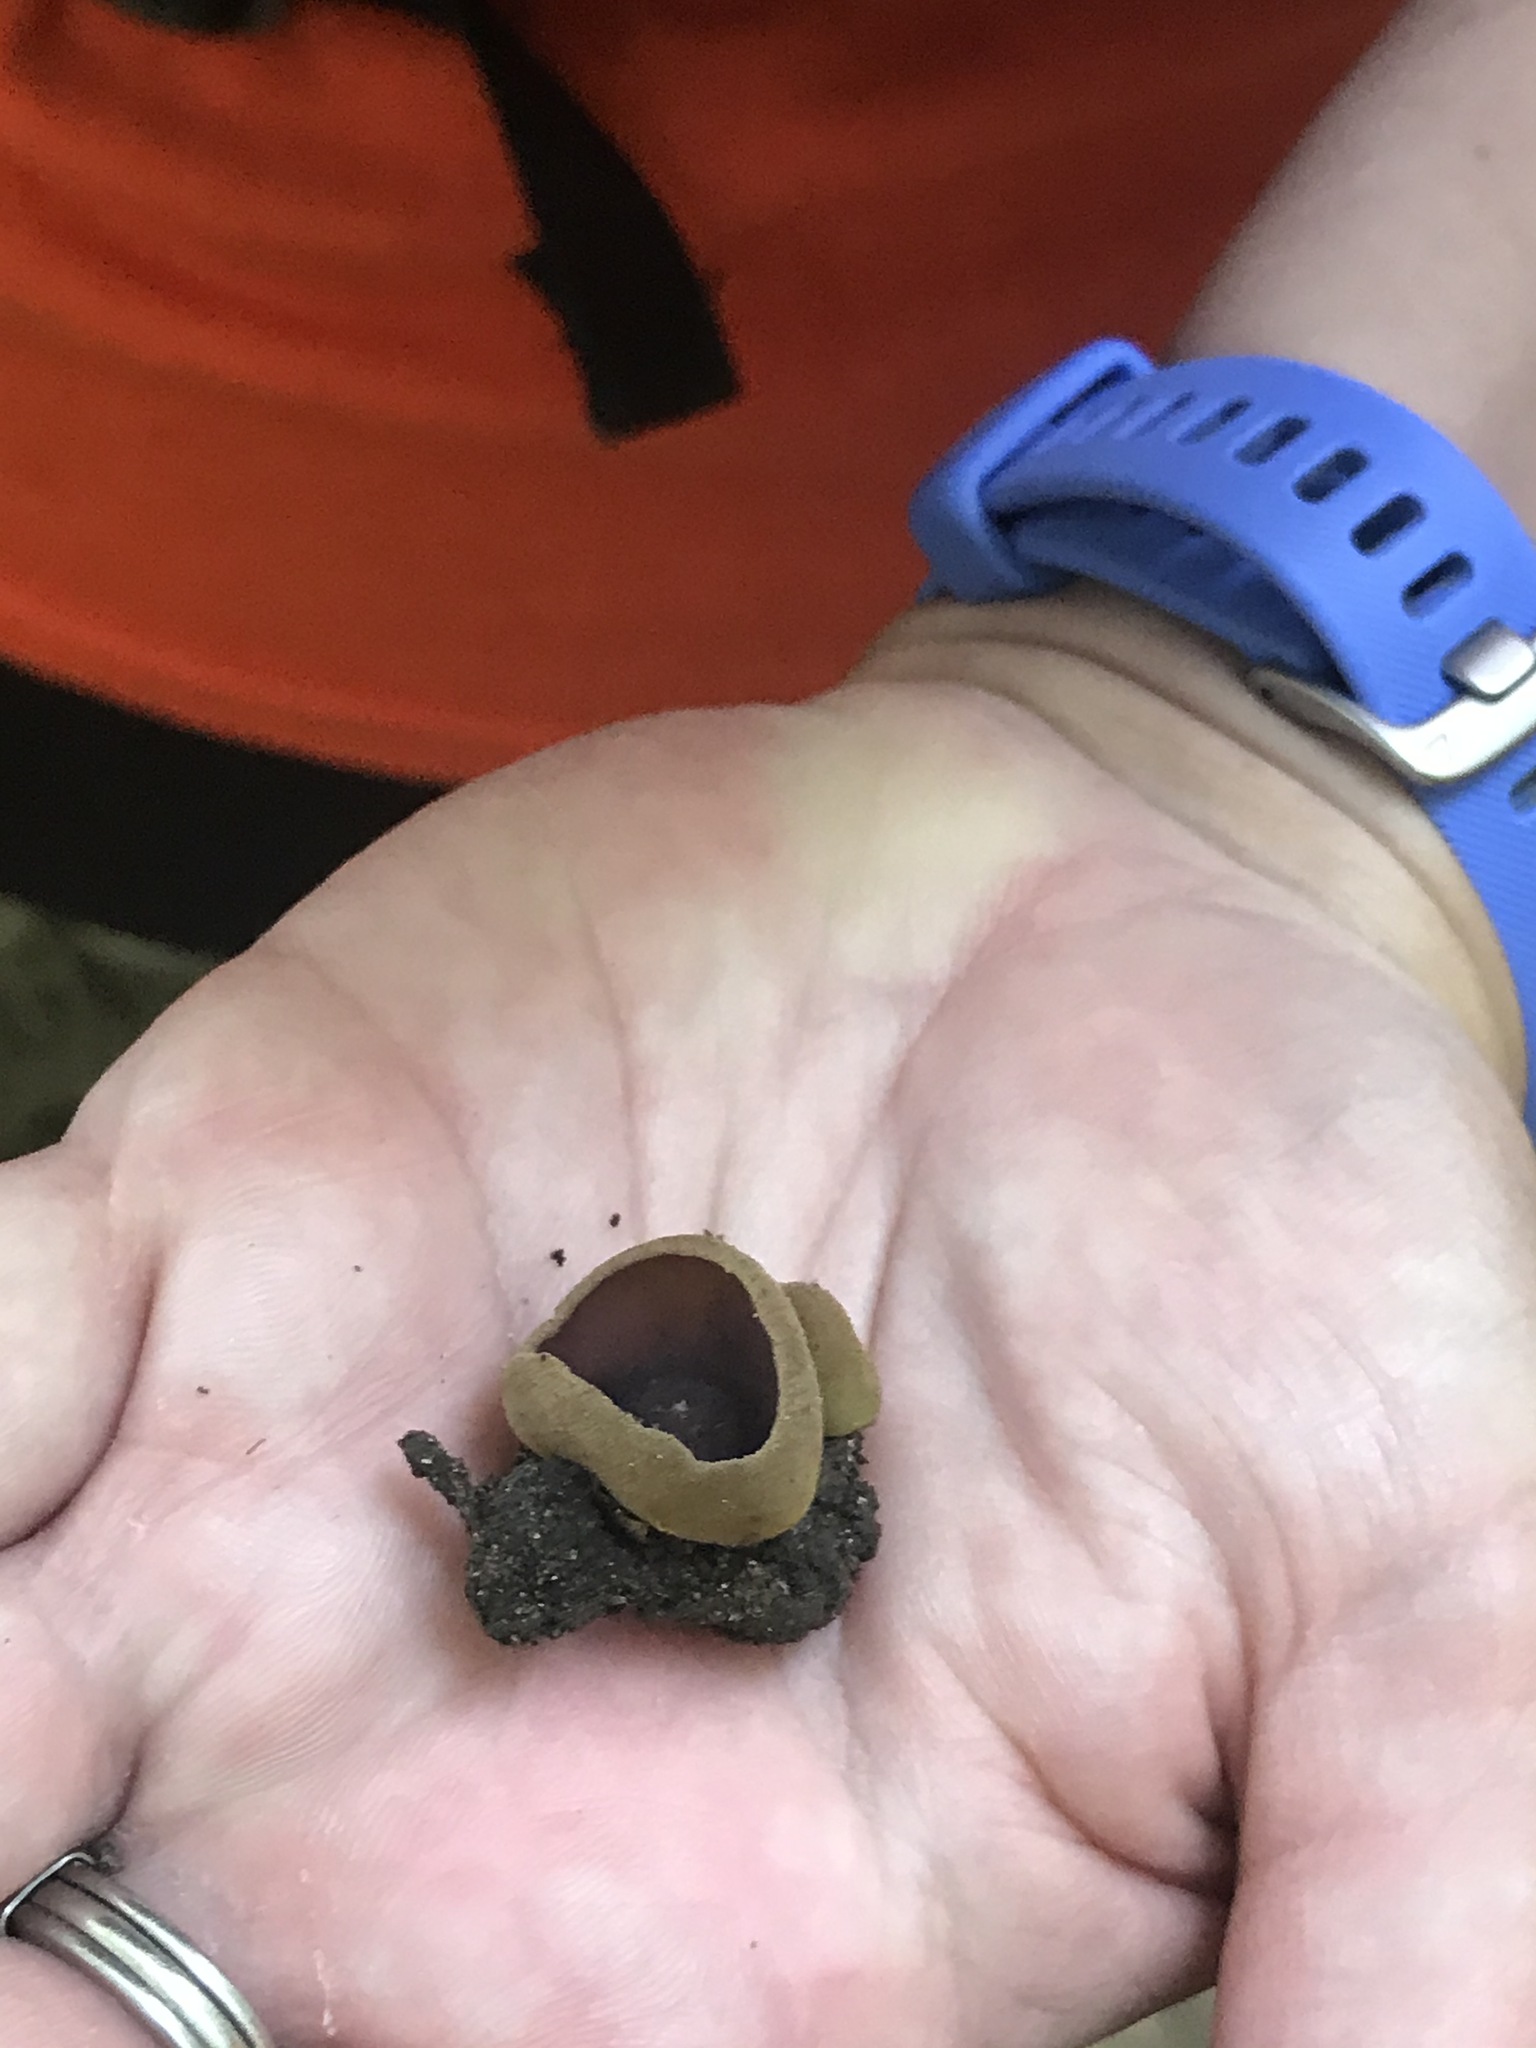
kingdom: Fungi
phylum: Ascomycota
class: Pezizomycetes
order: Pezizales
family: Pezizaceae
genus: Paragalactinia
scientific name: Paragalactinia michelii
